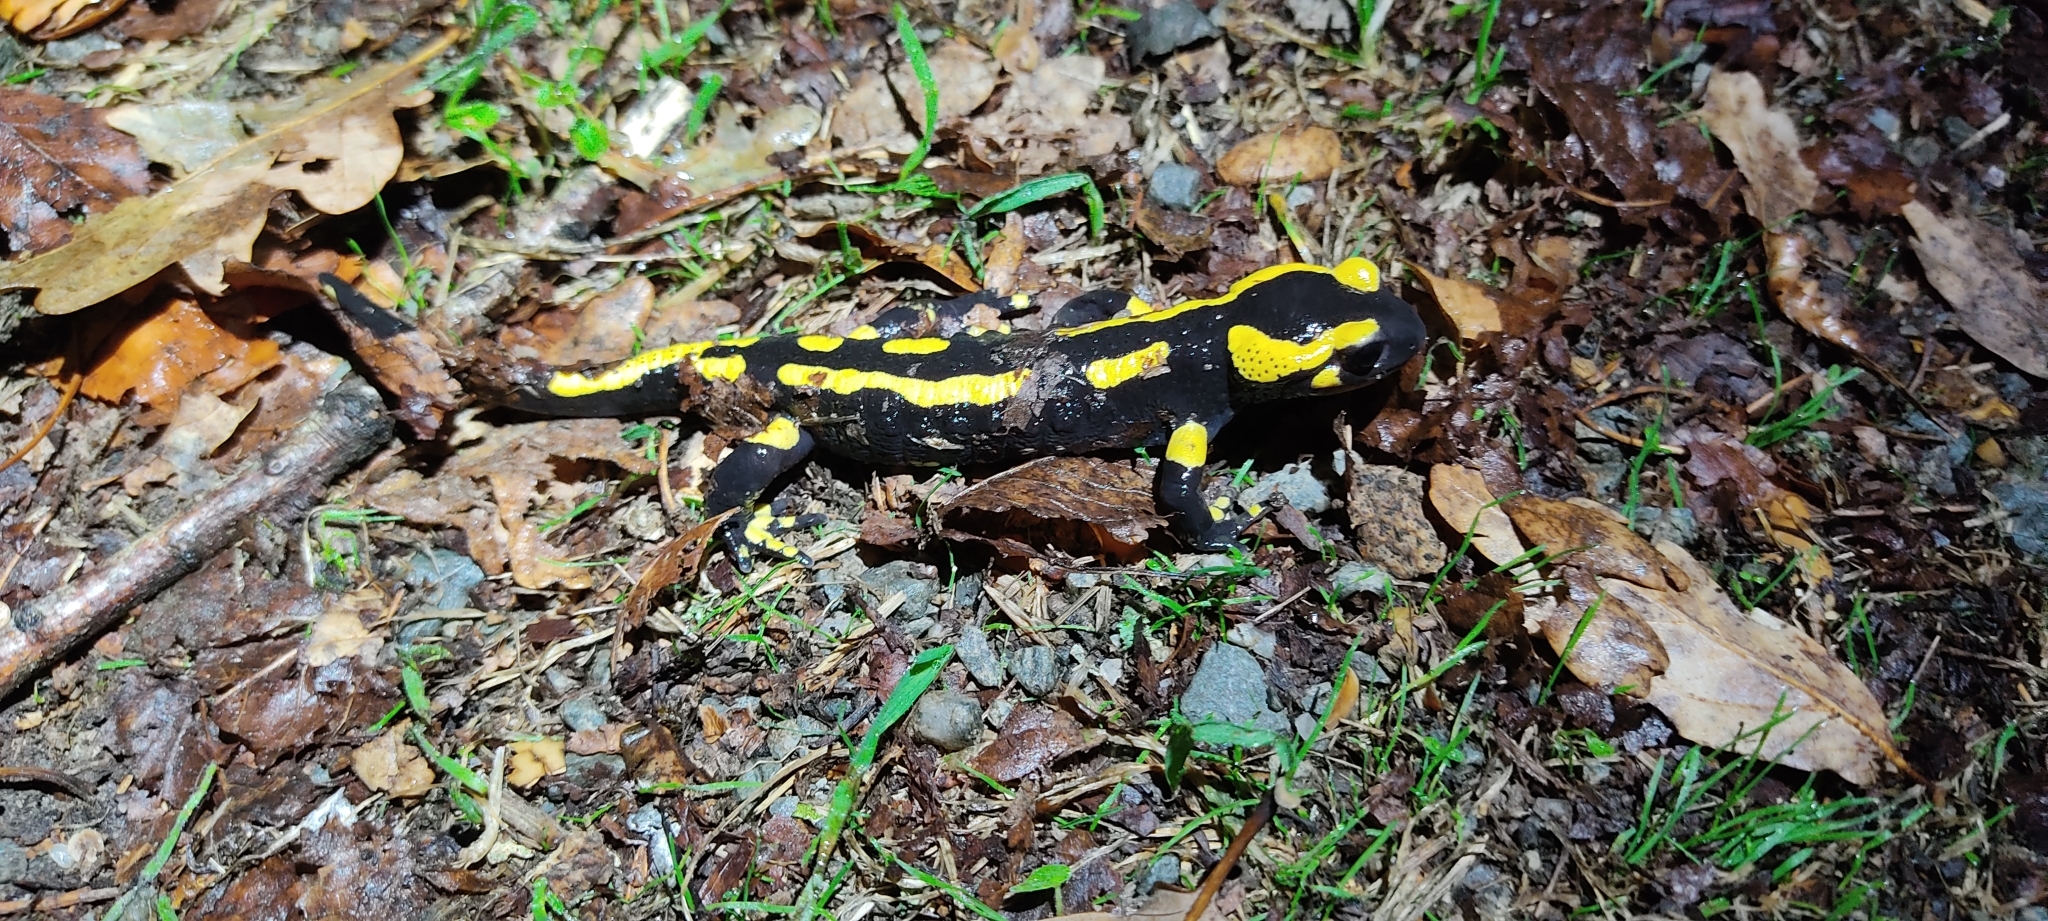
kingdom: Animalia
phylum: Chordata
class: Amphibia
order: Caudata
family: Salamandridae
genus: Salamandra
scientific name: Salamandra salamandra
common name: Fire salamander
